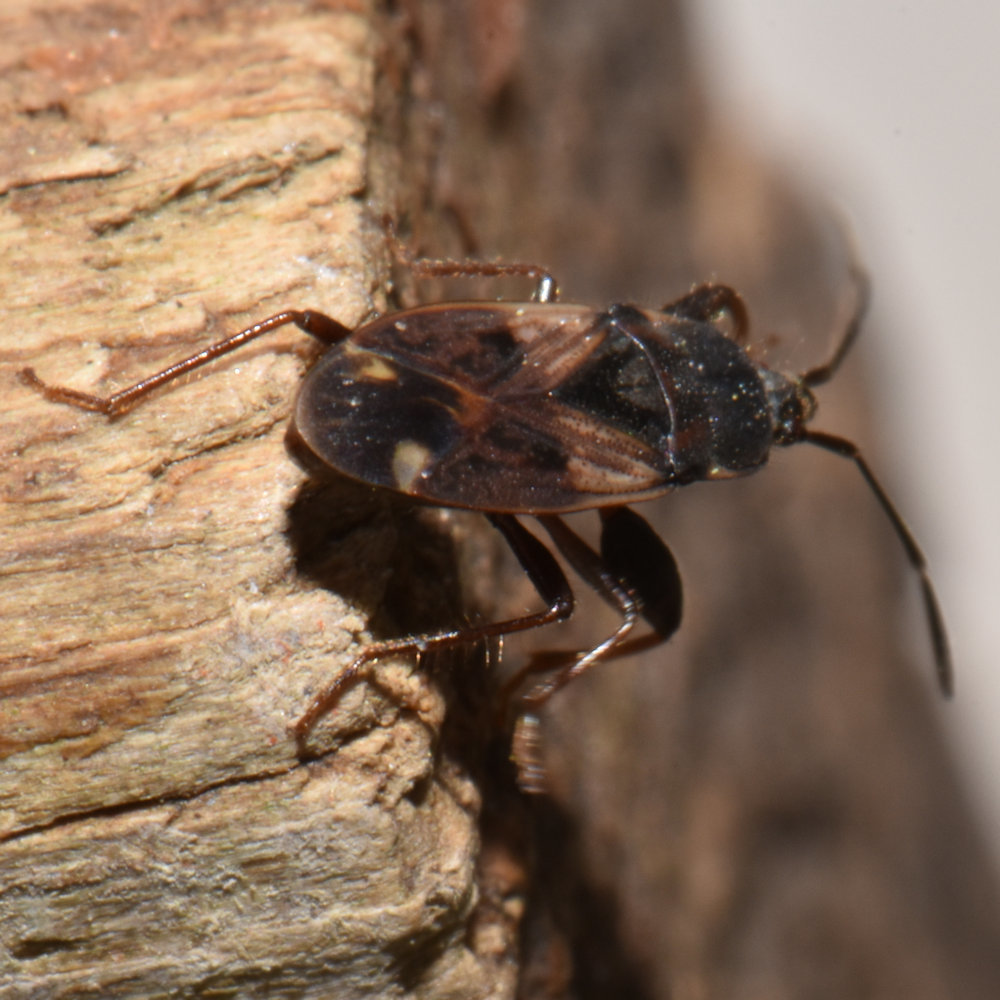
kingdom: Animalia
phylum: Arthropoda
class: Insecta
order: Hemiptera
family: Rhyparochromidae
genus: Eremocoris
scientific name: Eremocoris ferus
